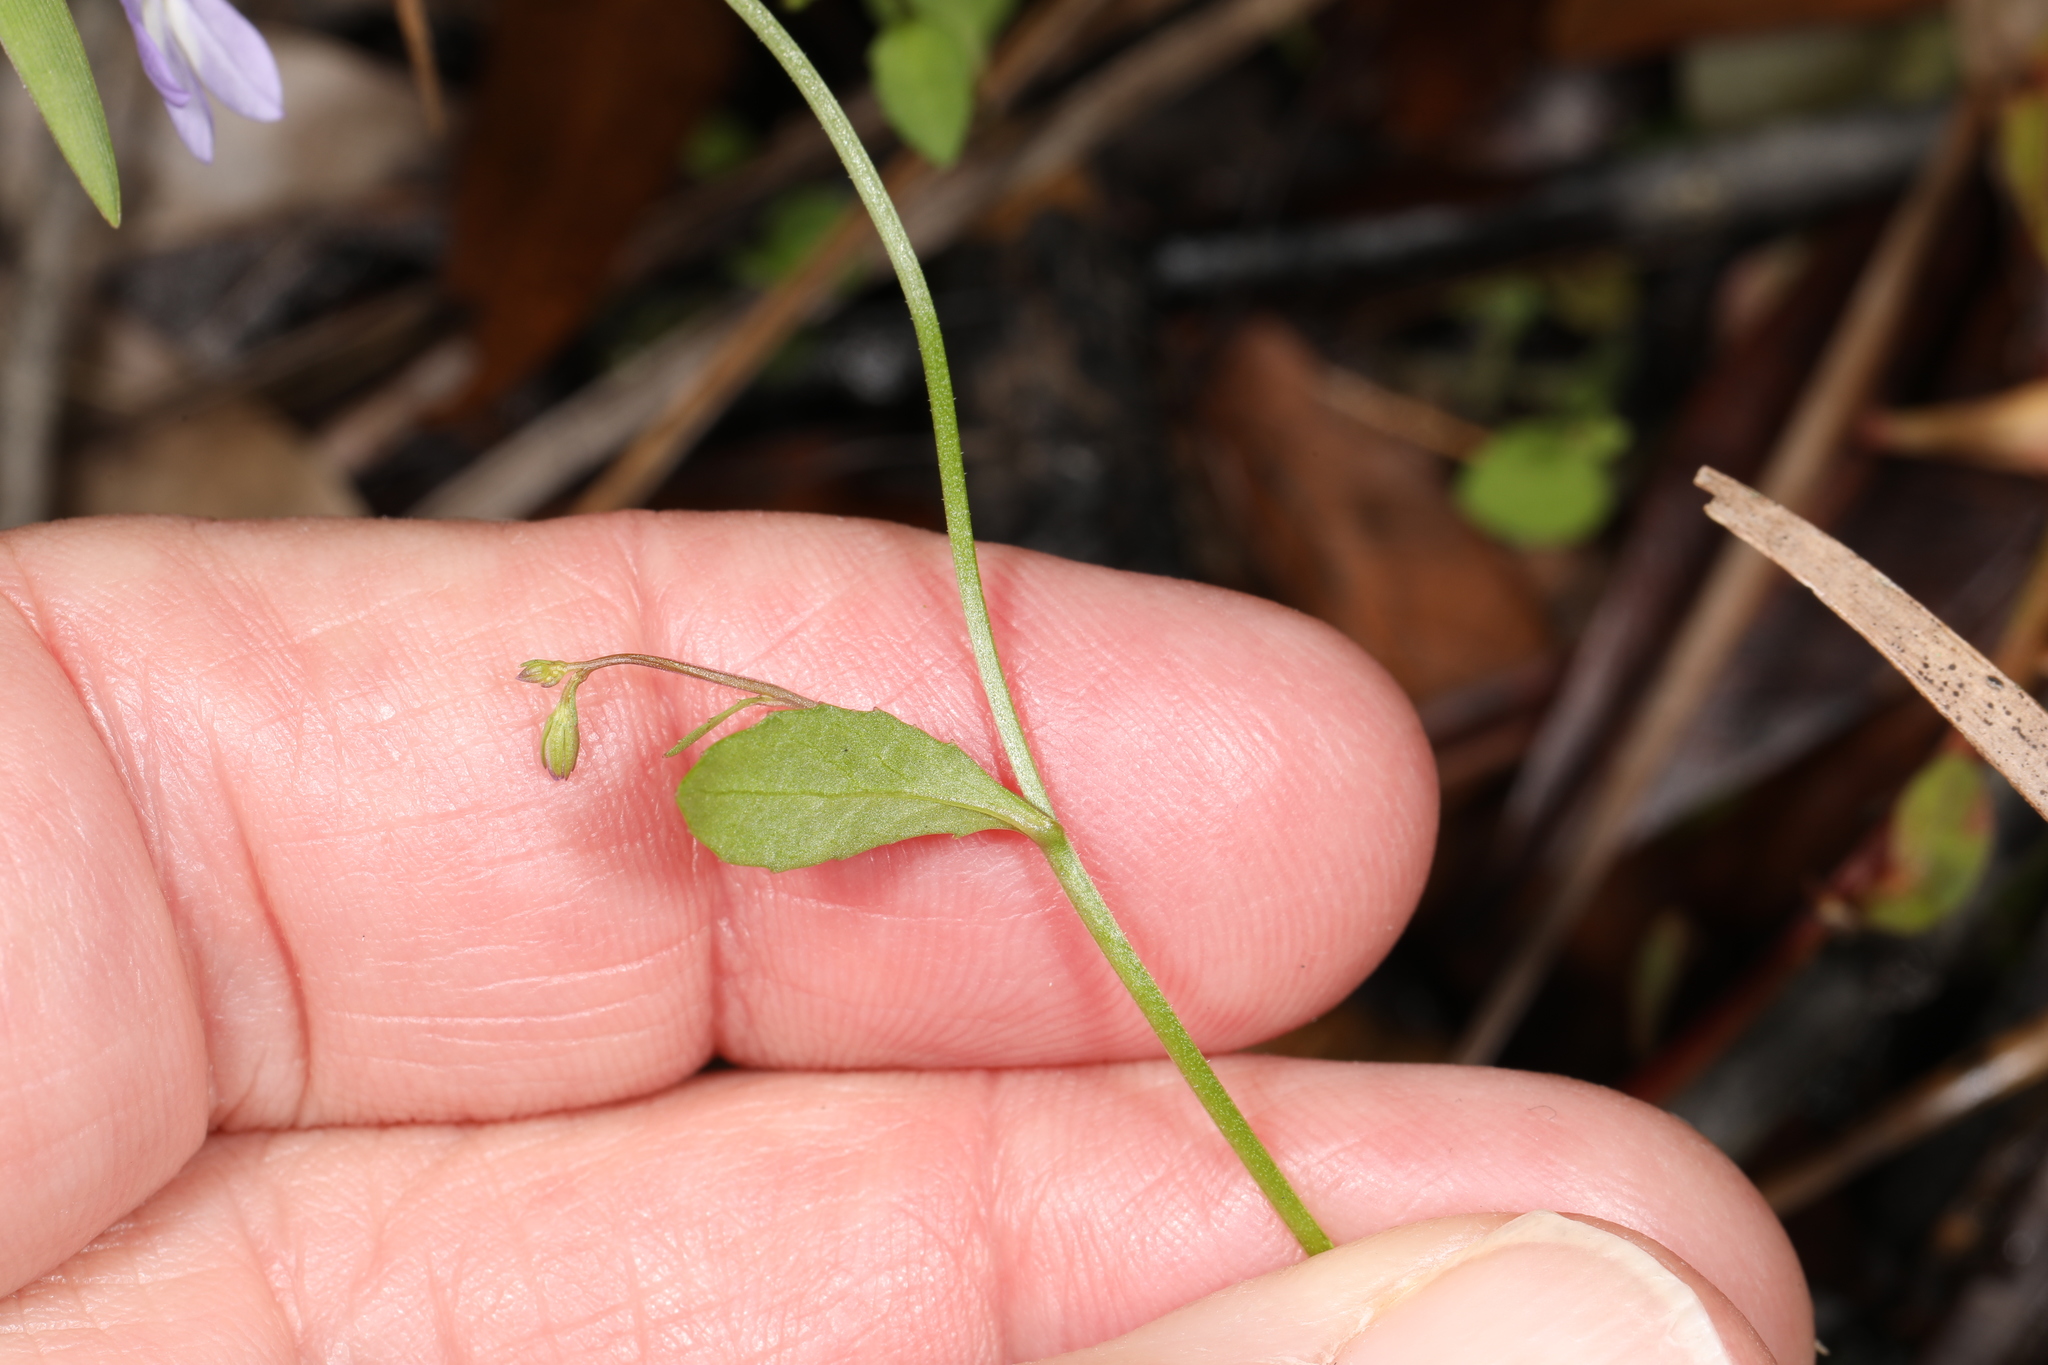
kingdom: Plantae
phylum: Tracheophyta
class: Magnoliopsida
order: Asterales
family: Campanulaceae
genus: Lobelia
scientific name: Lobelia feayana
